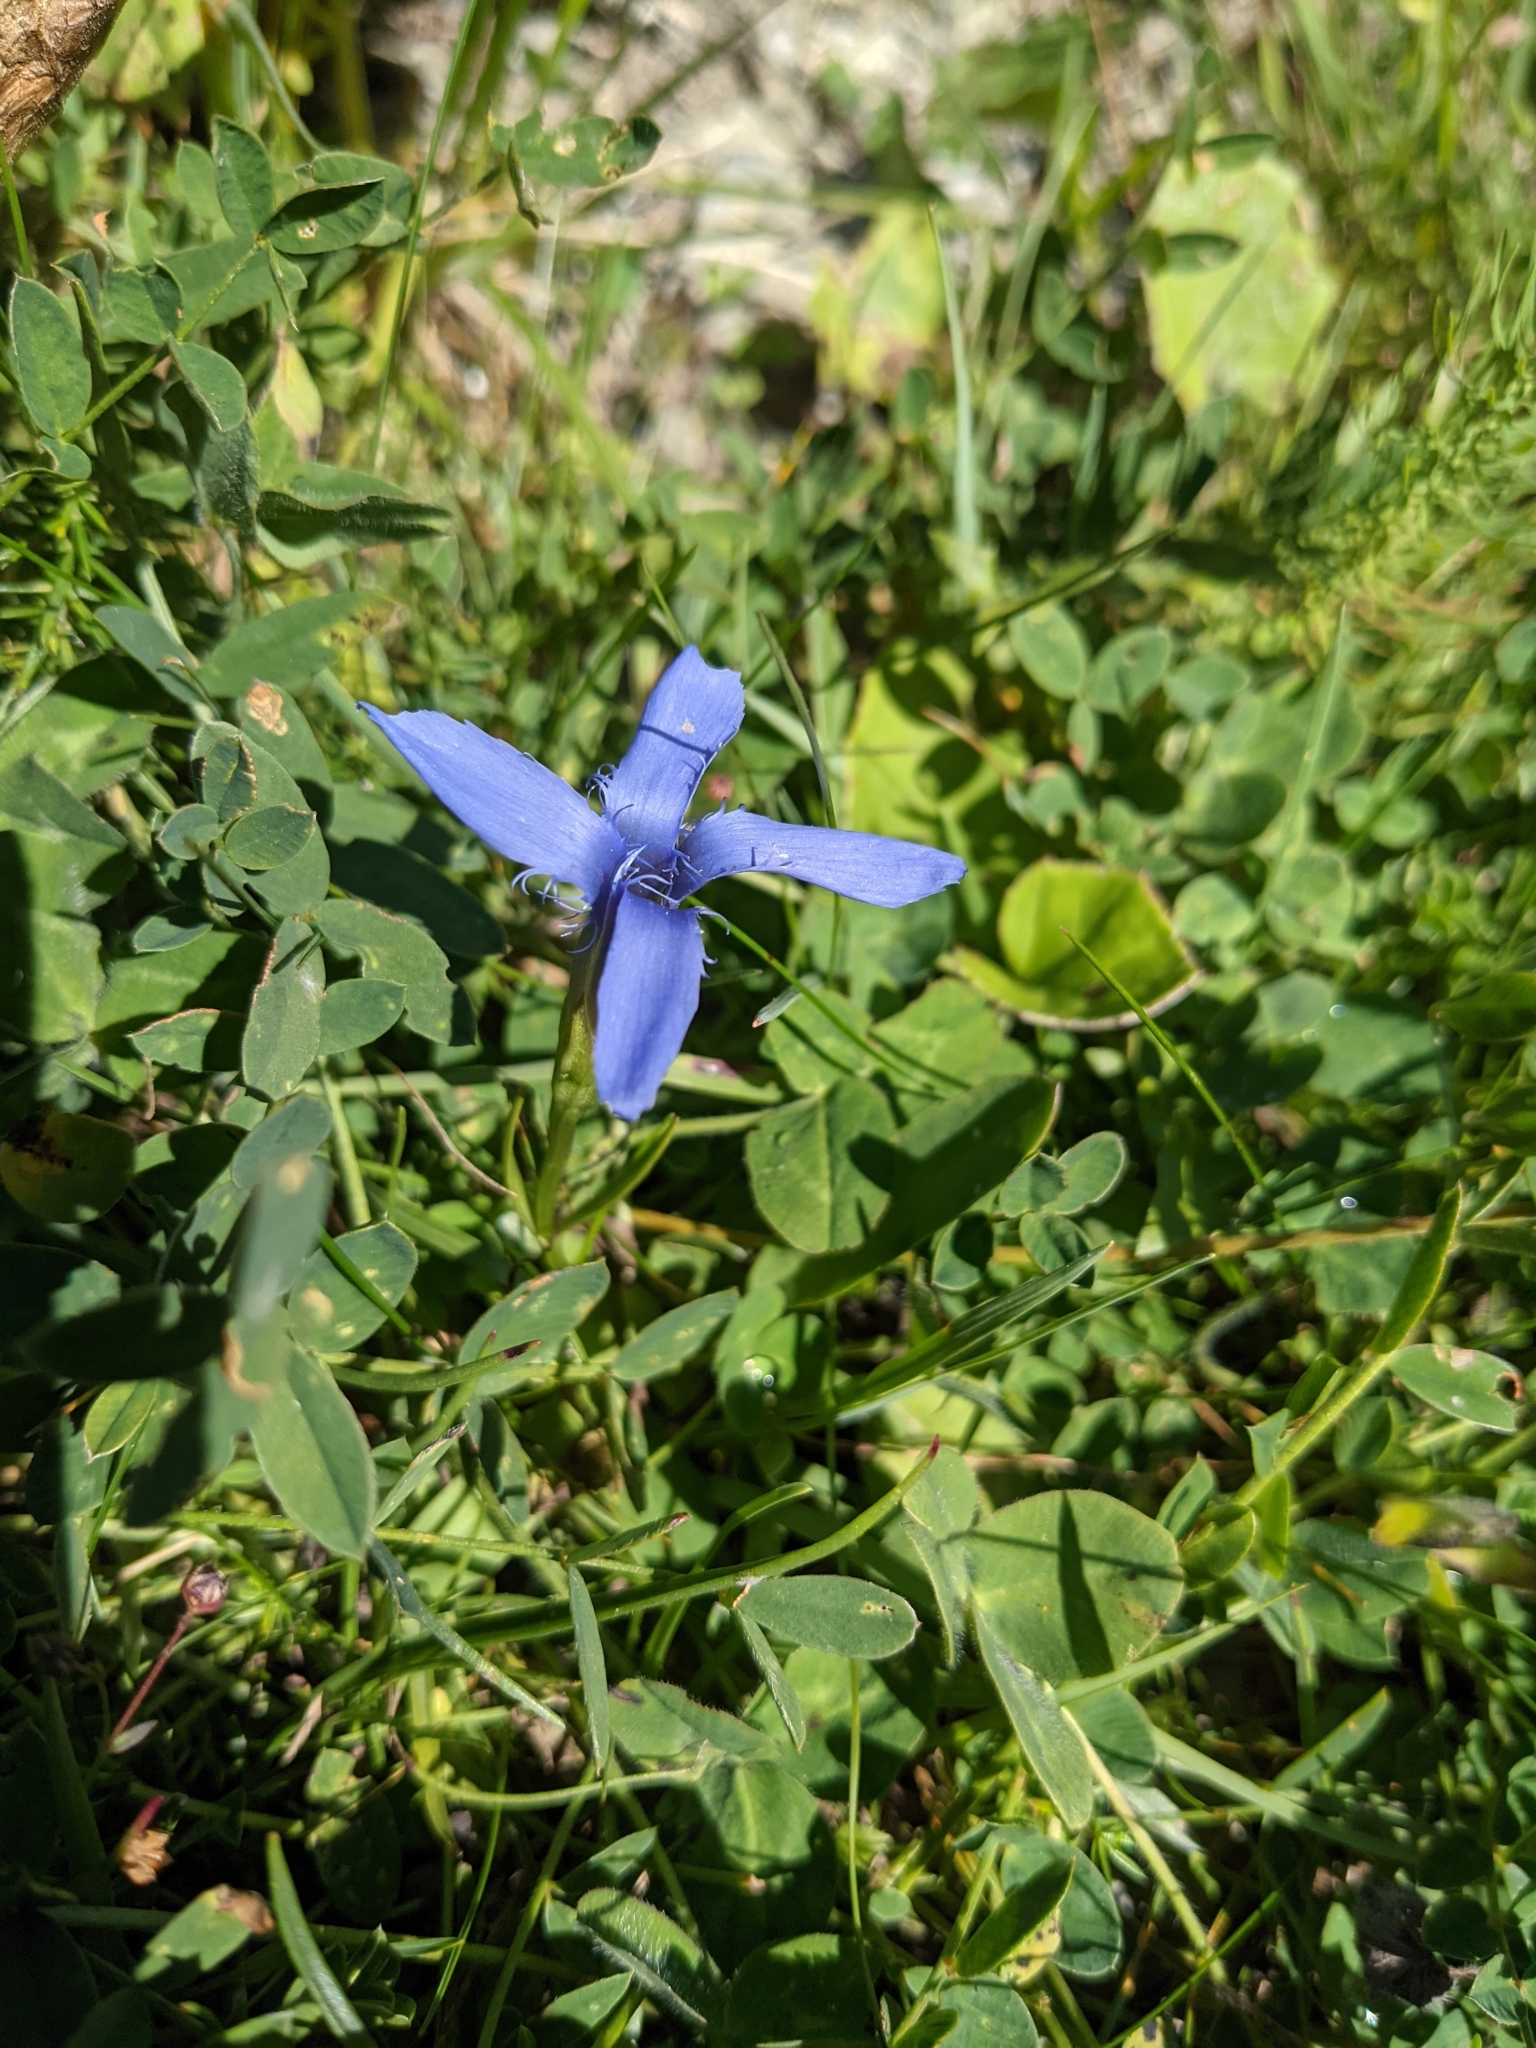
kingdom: Plantae
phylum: Tracheophyta
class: Magnoliopsida
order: Gentianales
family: Gentianaceae
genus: Gentianopsis
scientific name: Gentianopsis ciliata
